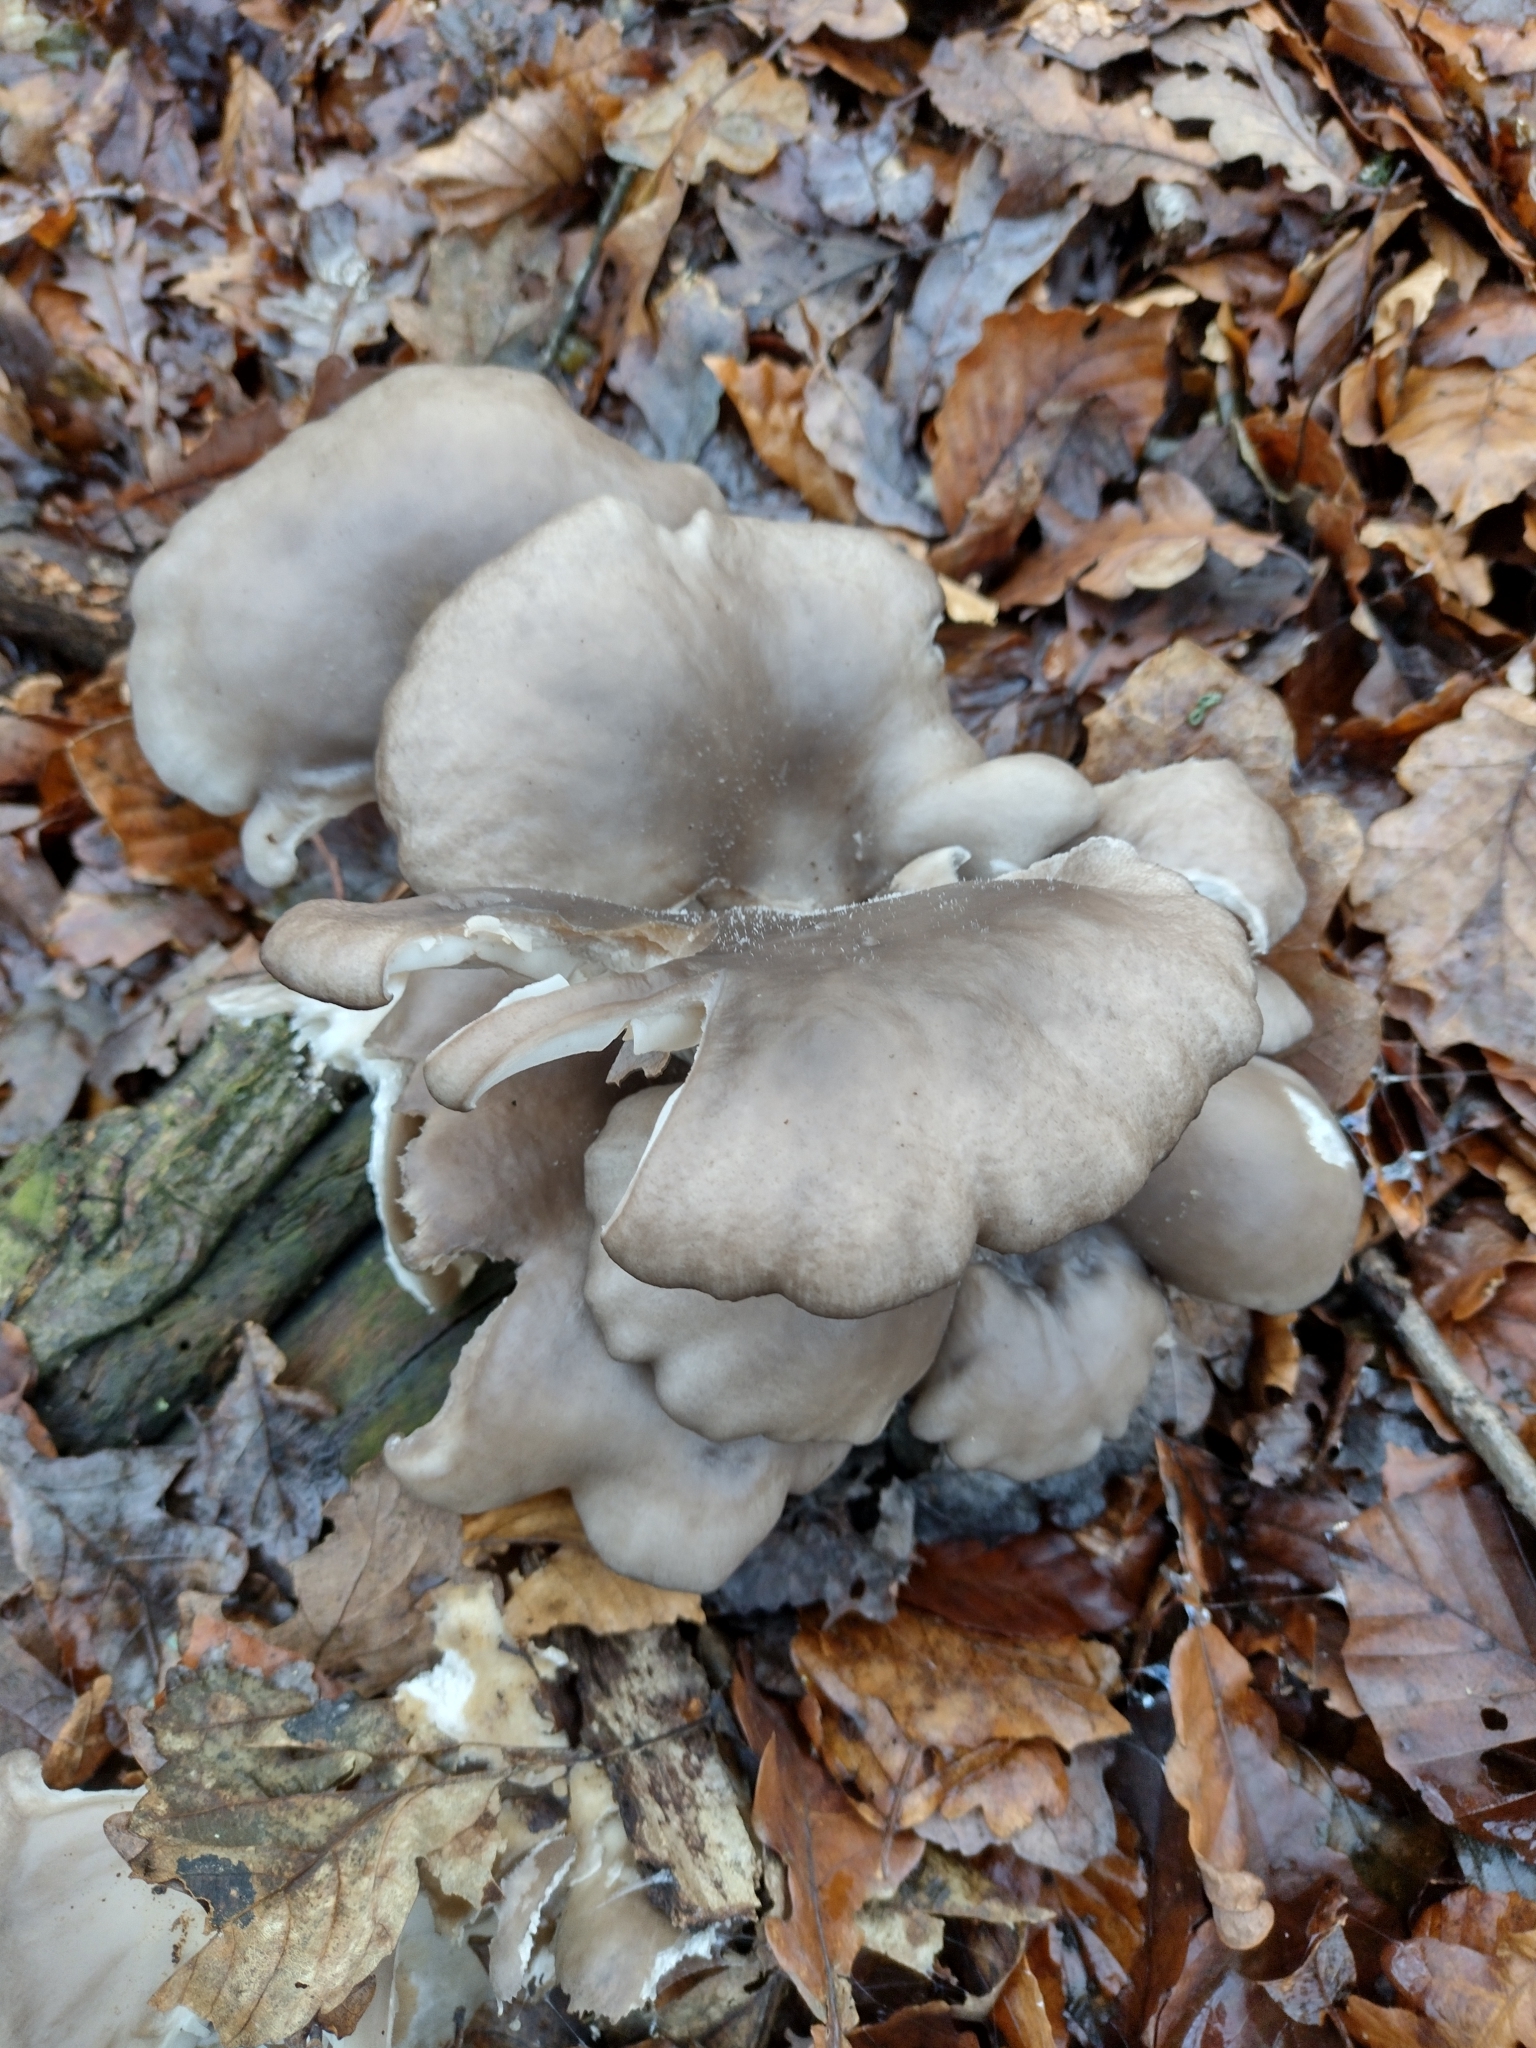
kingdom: Fungi
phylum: Basidiomycota
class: Agaricomycetes
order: Agaricales
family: Pleurotaceae
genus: Pleurotus
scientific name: Pleurotus ostreatus
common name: Oyster mushroom
